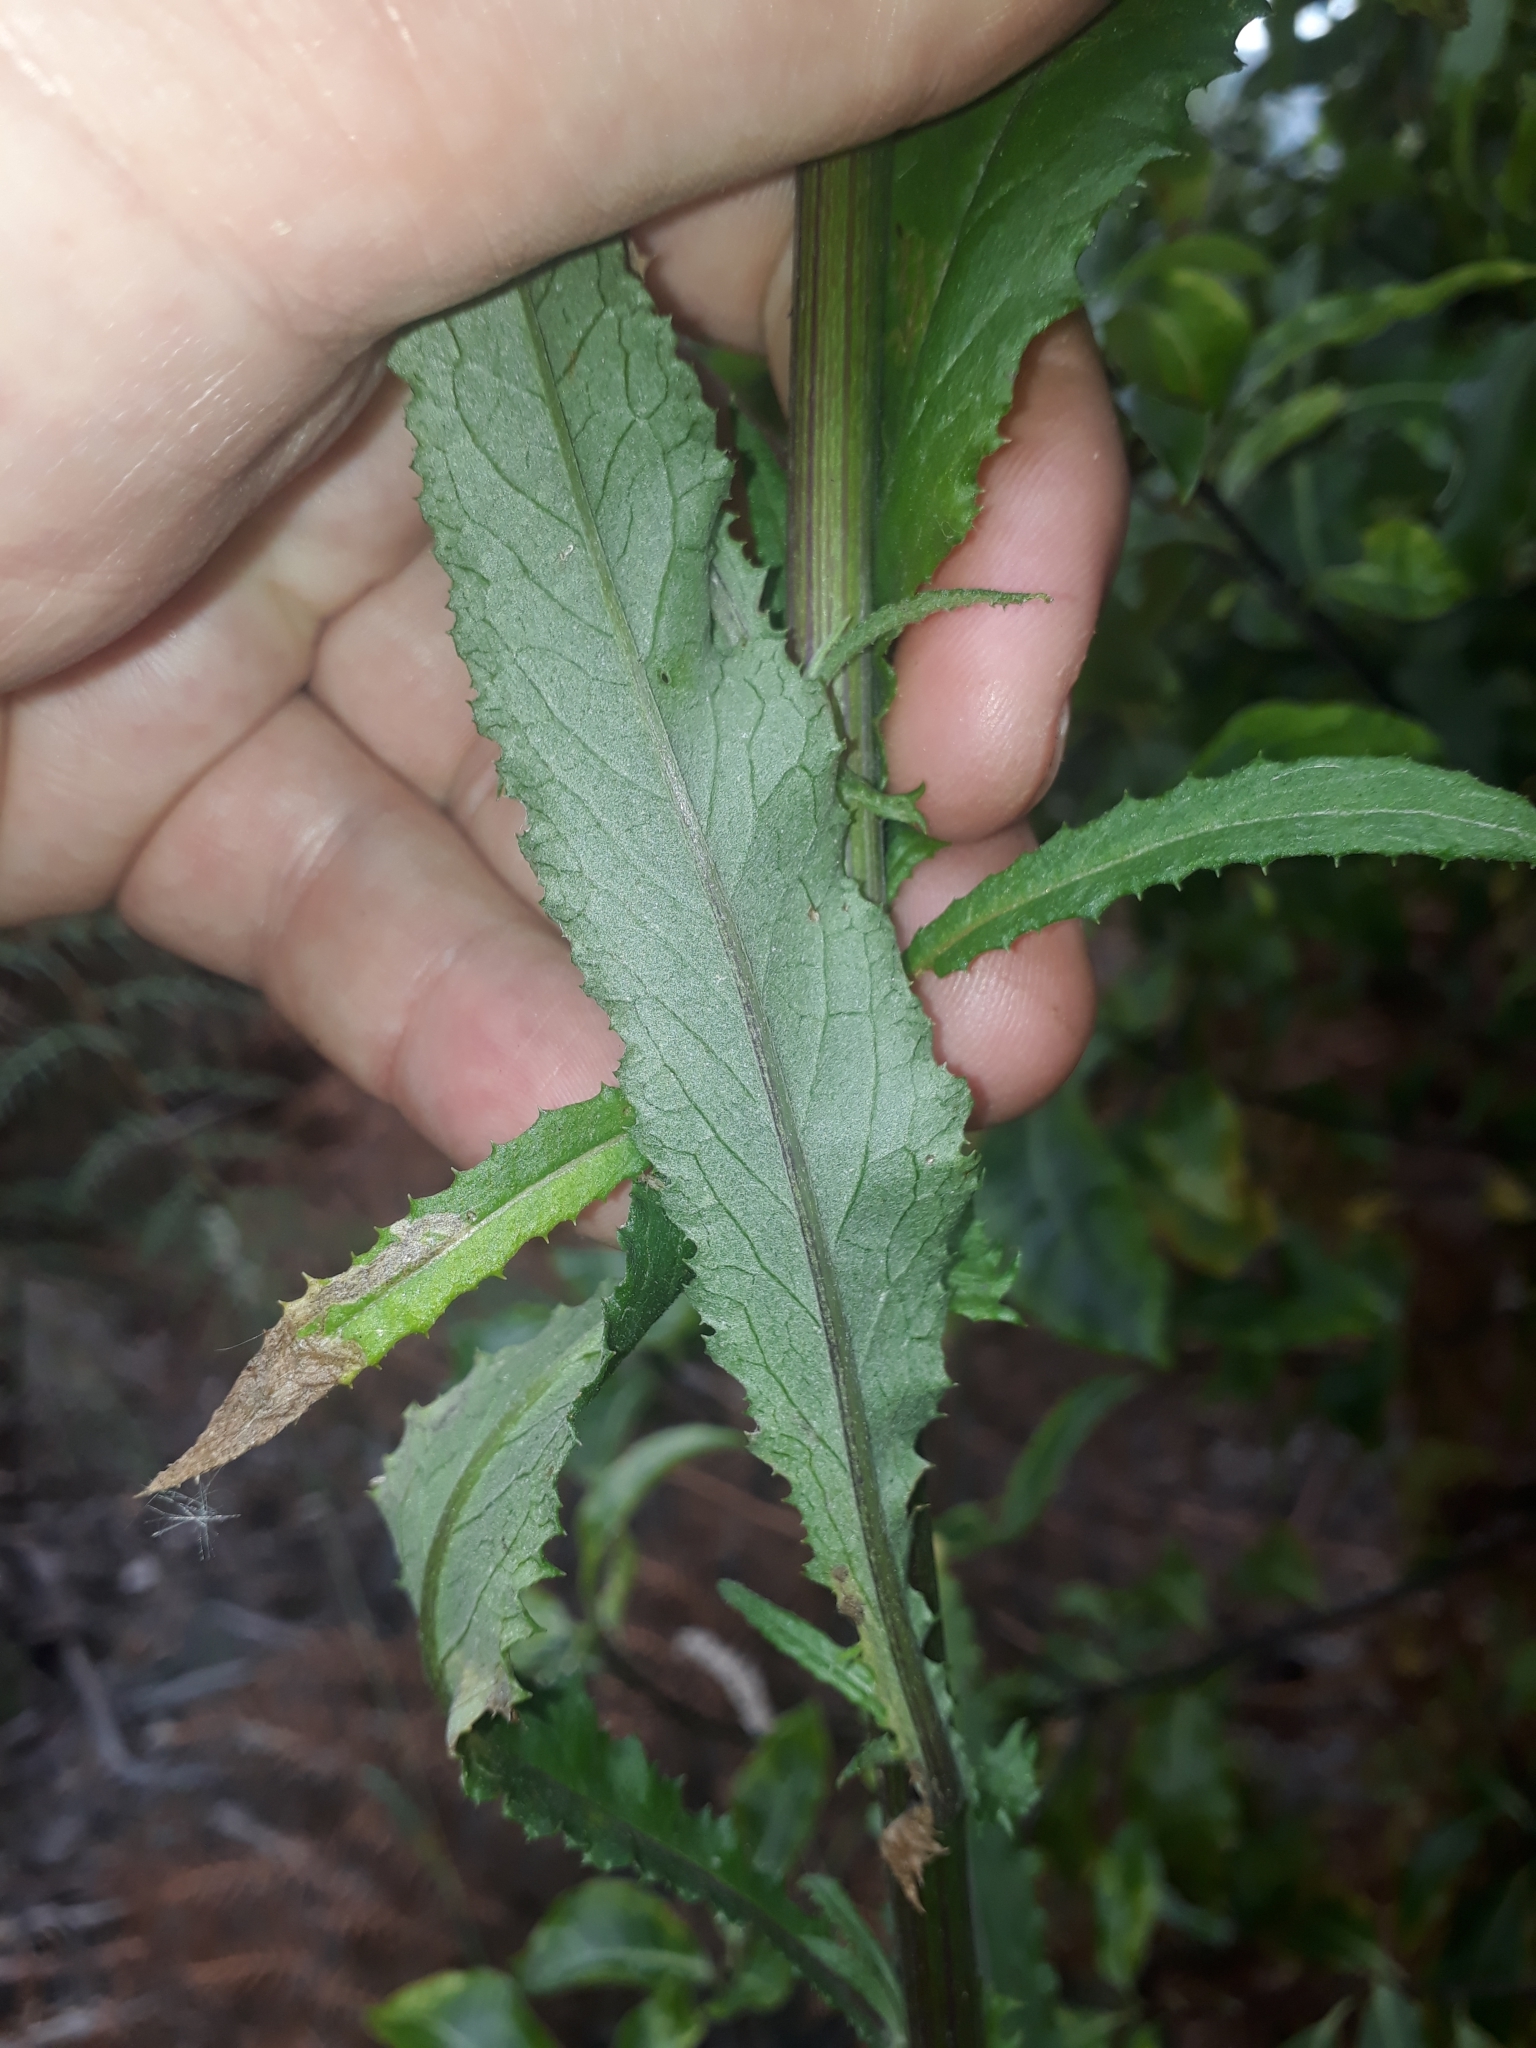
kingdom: Plantae
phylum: Tracheophyta
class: Magnoliopsida
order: Asterales
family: Asteraceae
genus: Senecio
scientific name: Senecio minimus
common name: Toothed fireweed
